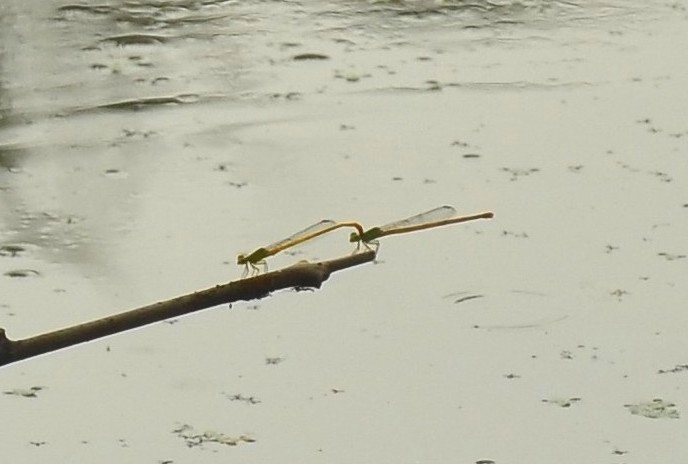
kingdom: Animalia
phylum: Arthropoda
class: Insecta
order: Odonata
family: Coenagrionidae
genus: Ceriagrion
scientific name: Ceriagrion coromandelianum
